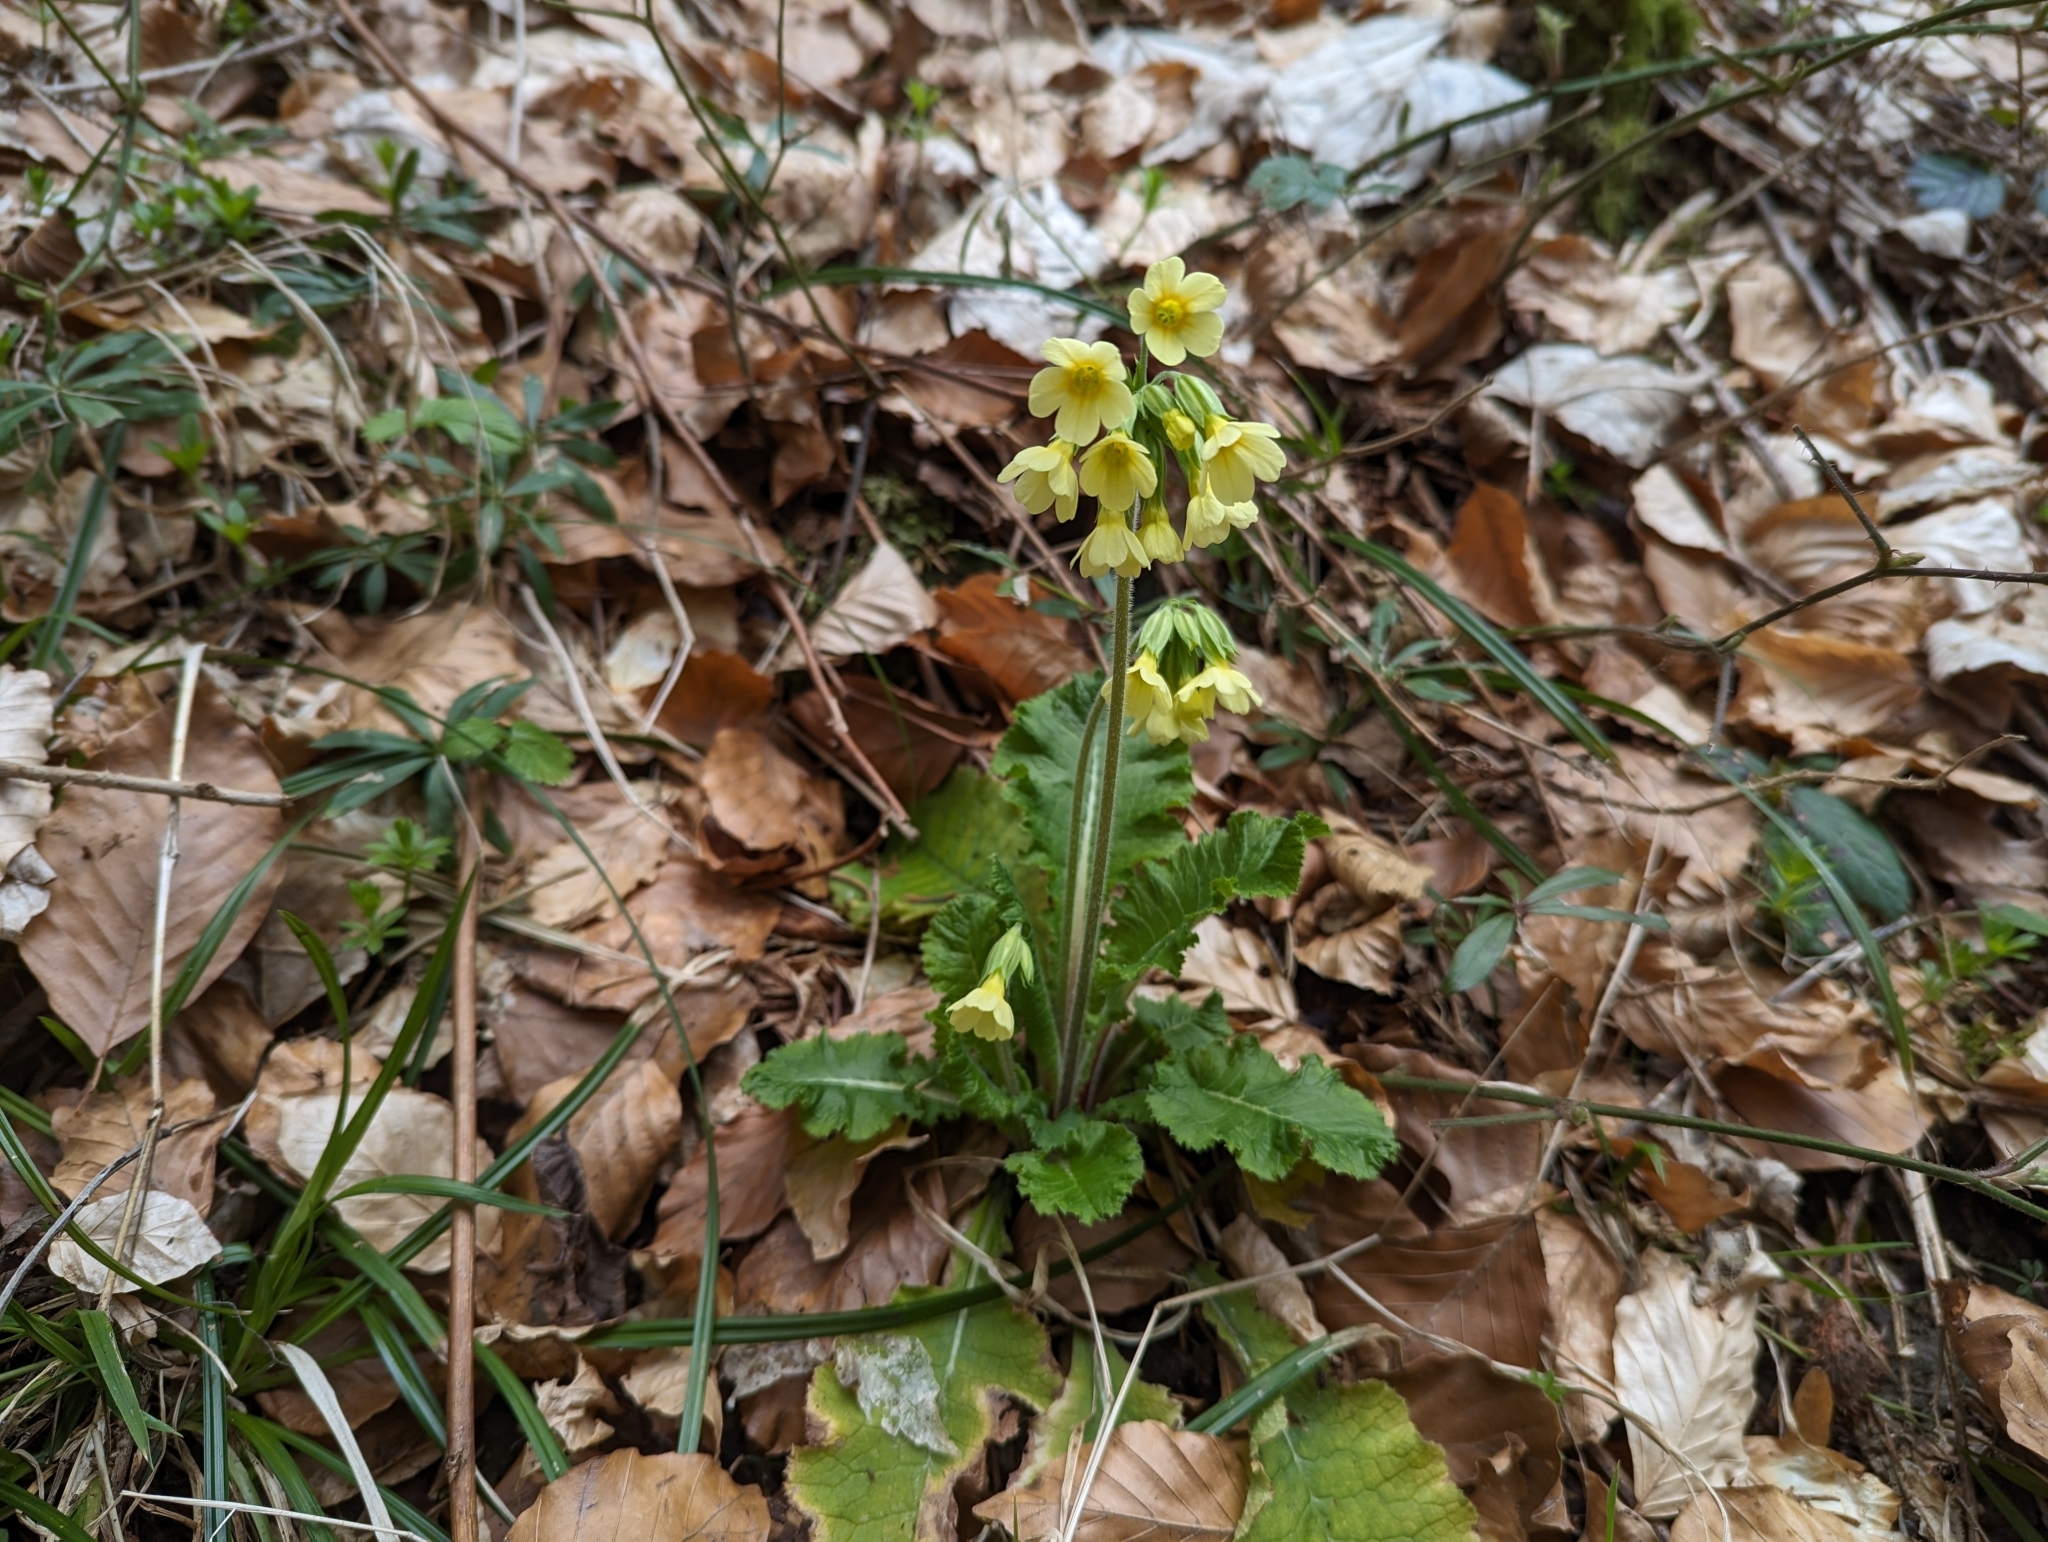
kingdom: Plantae
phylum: Tracheophyta
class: Magnoliopsida
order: Ericales
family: Primulaceae
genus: Primula
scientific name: Primula elatior
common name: Oxlip
